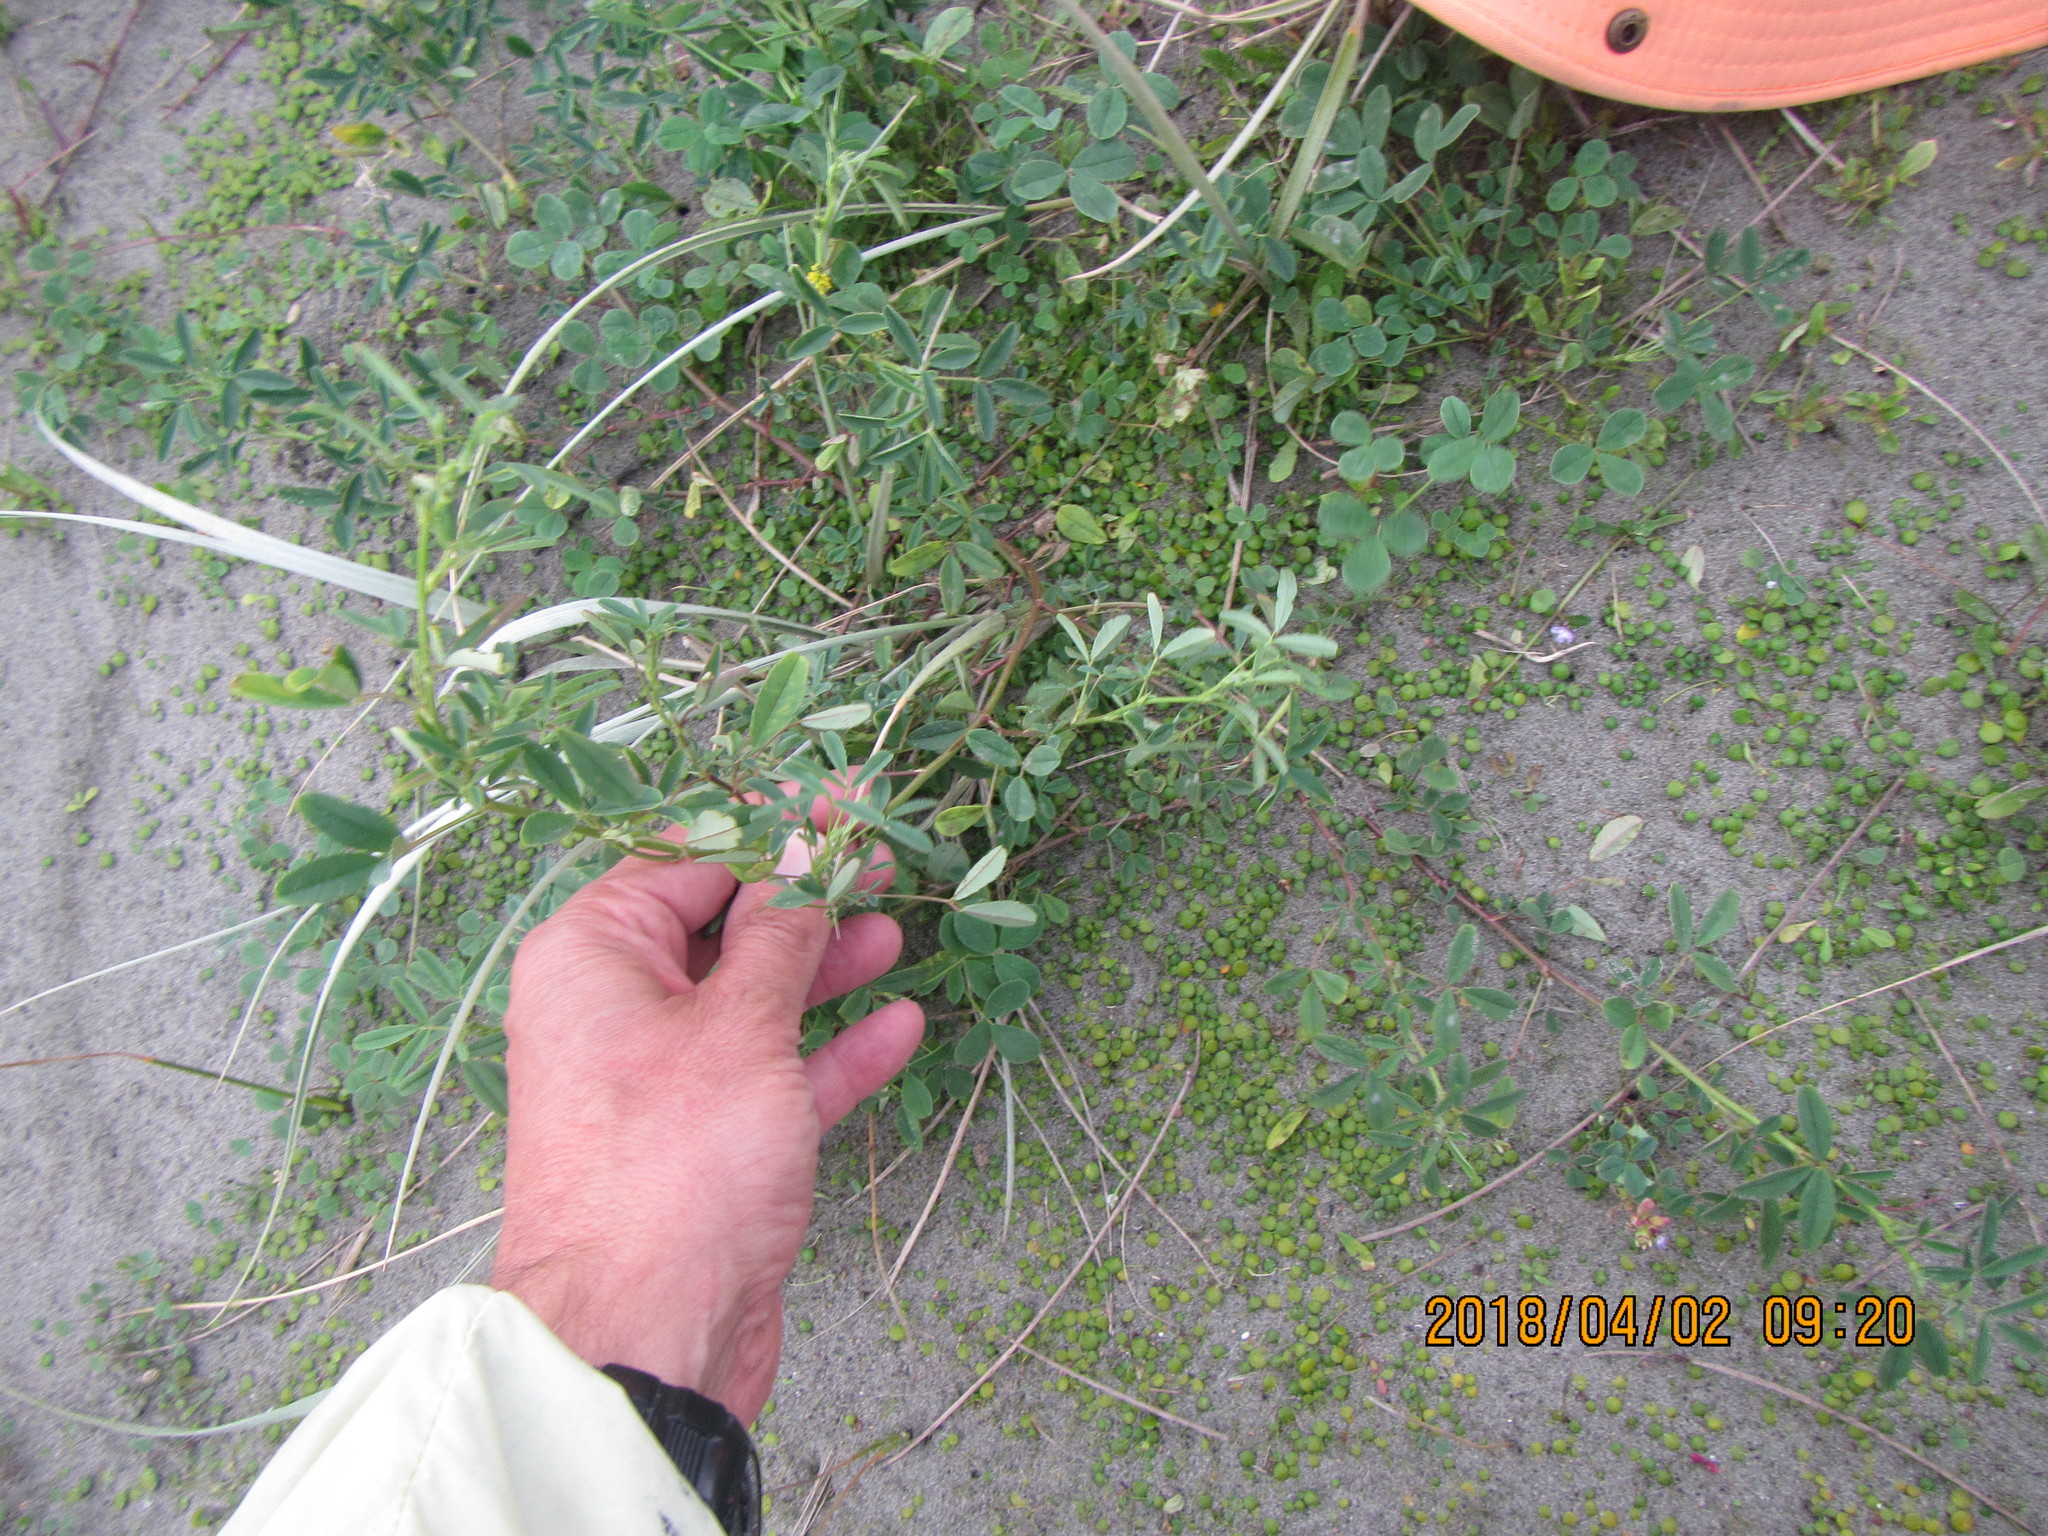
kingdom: Plantae
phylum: Tracheophyta
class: Magnoliopsida
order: Fabales
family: Fabaceae
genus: Melilotus
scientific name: Melilotus indicus
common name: Small melilot
